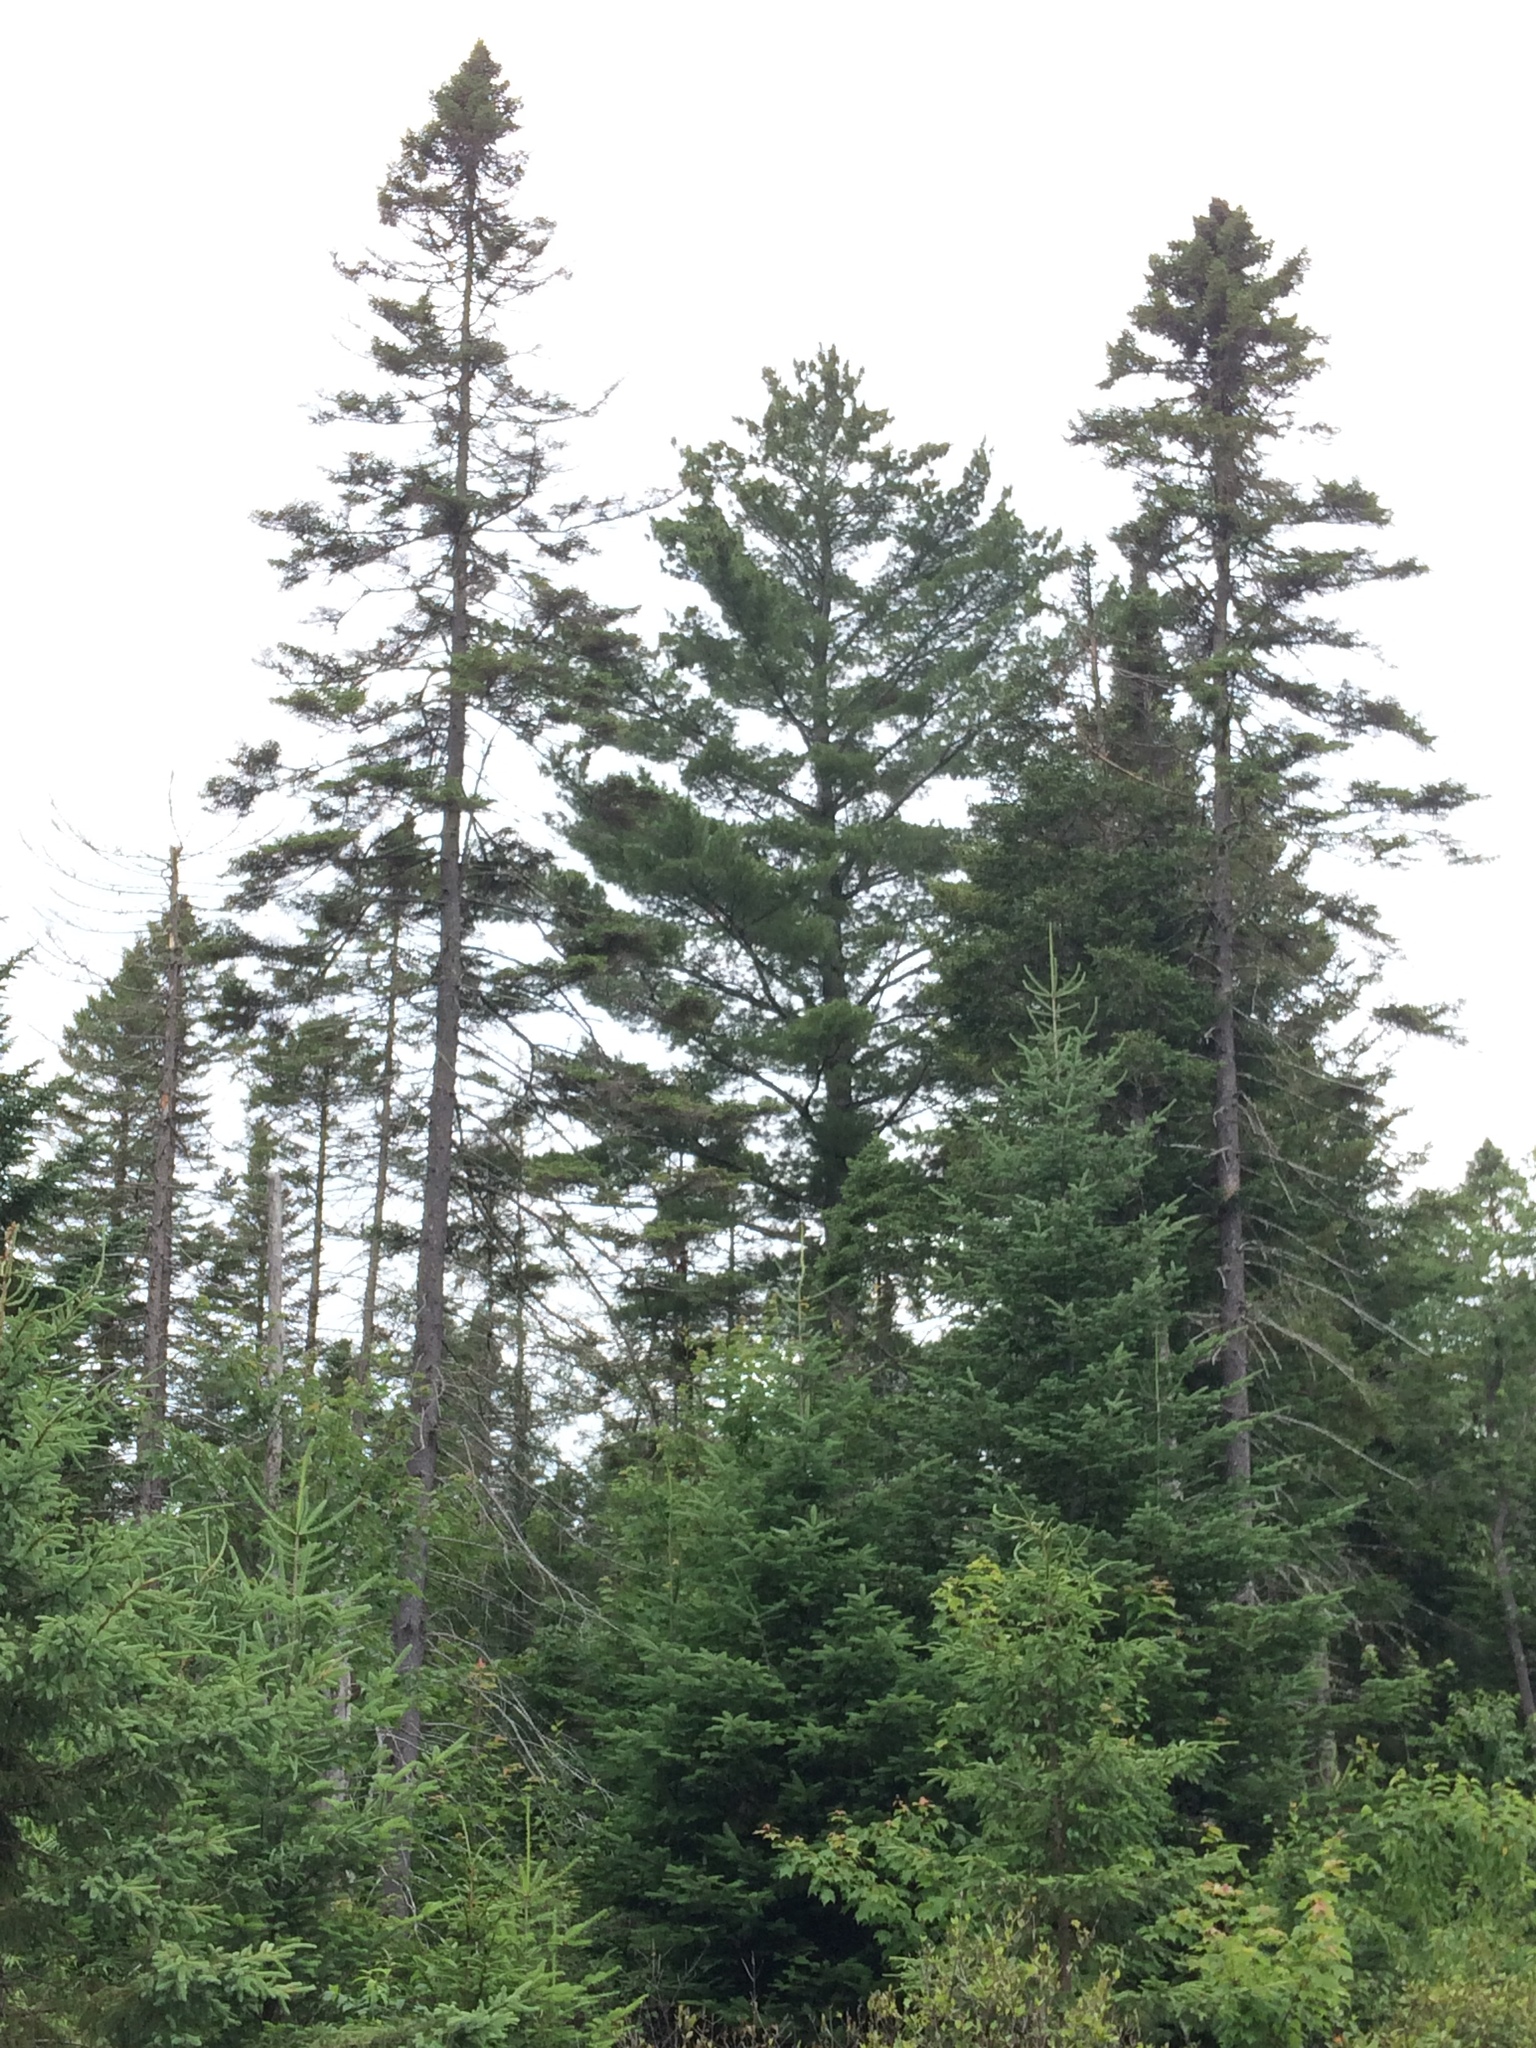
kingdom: Plantae
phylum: Tracheophyta
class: Pinopsida
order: Pinales
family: Pinaceae
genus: Pinus
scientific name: Pinus strobus
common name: Weymouth pine
